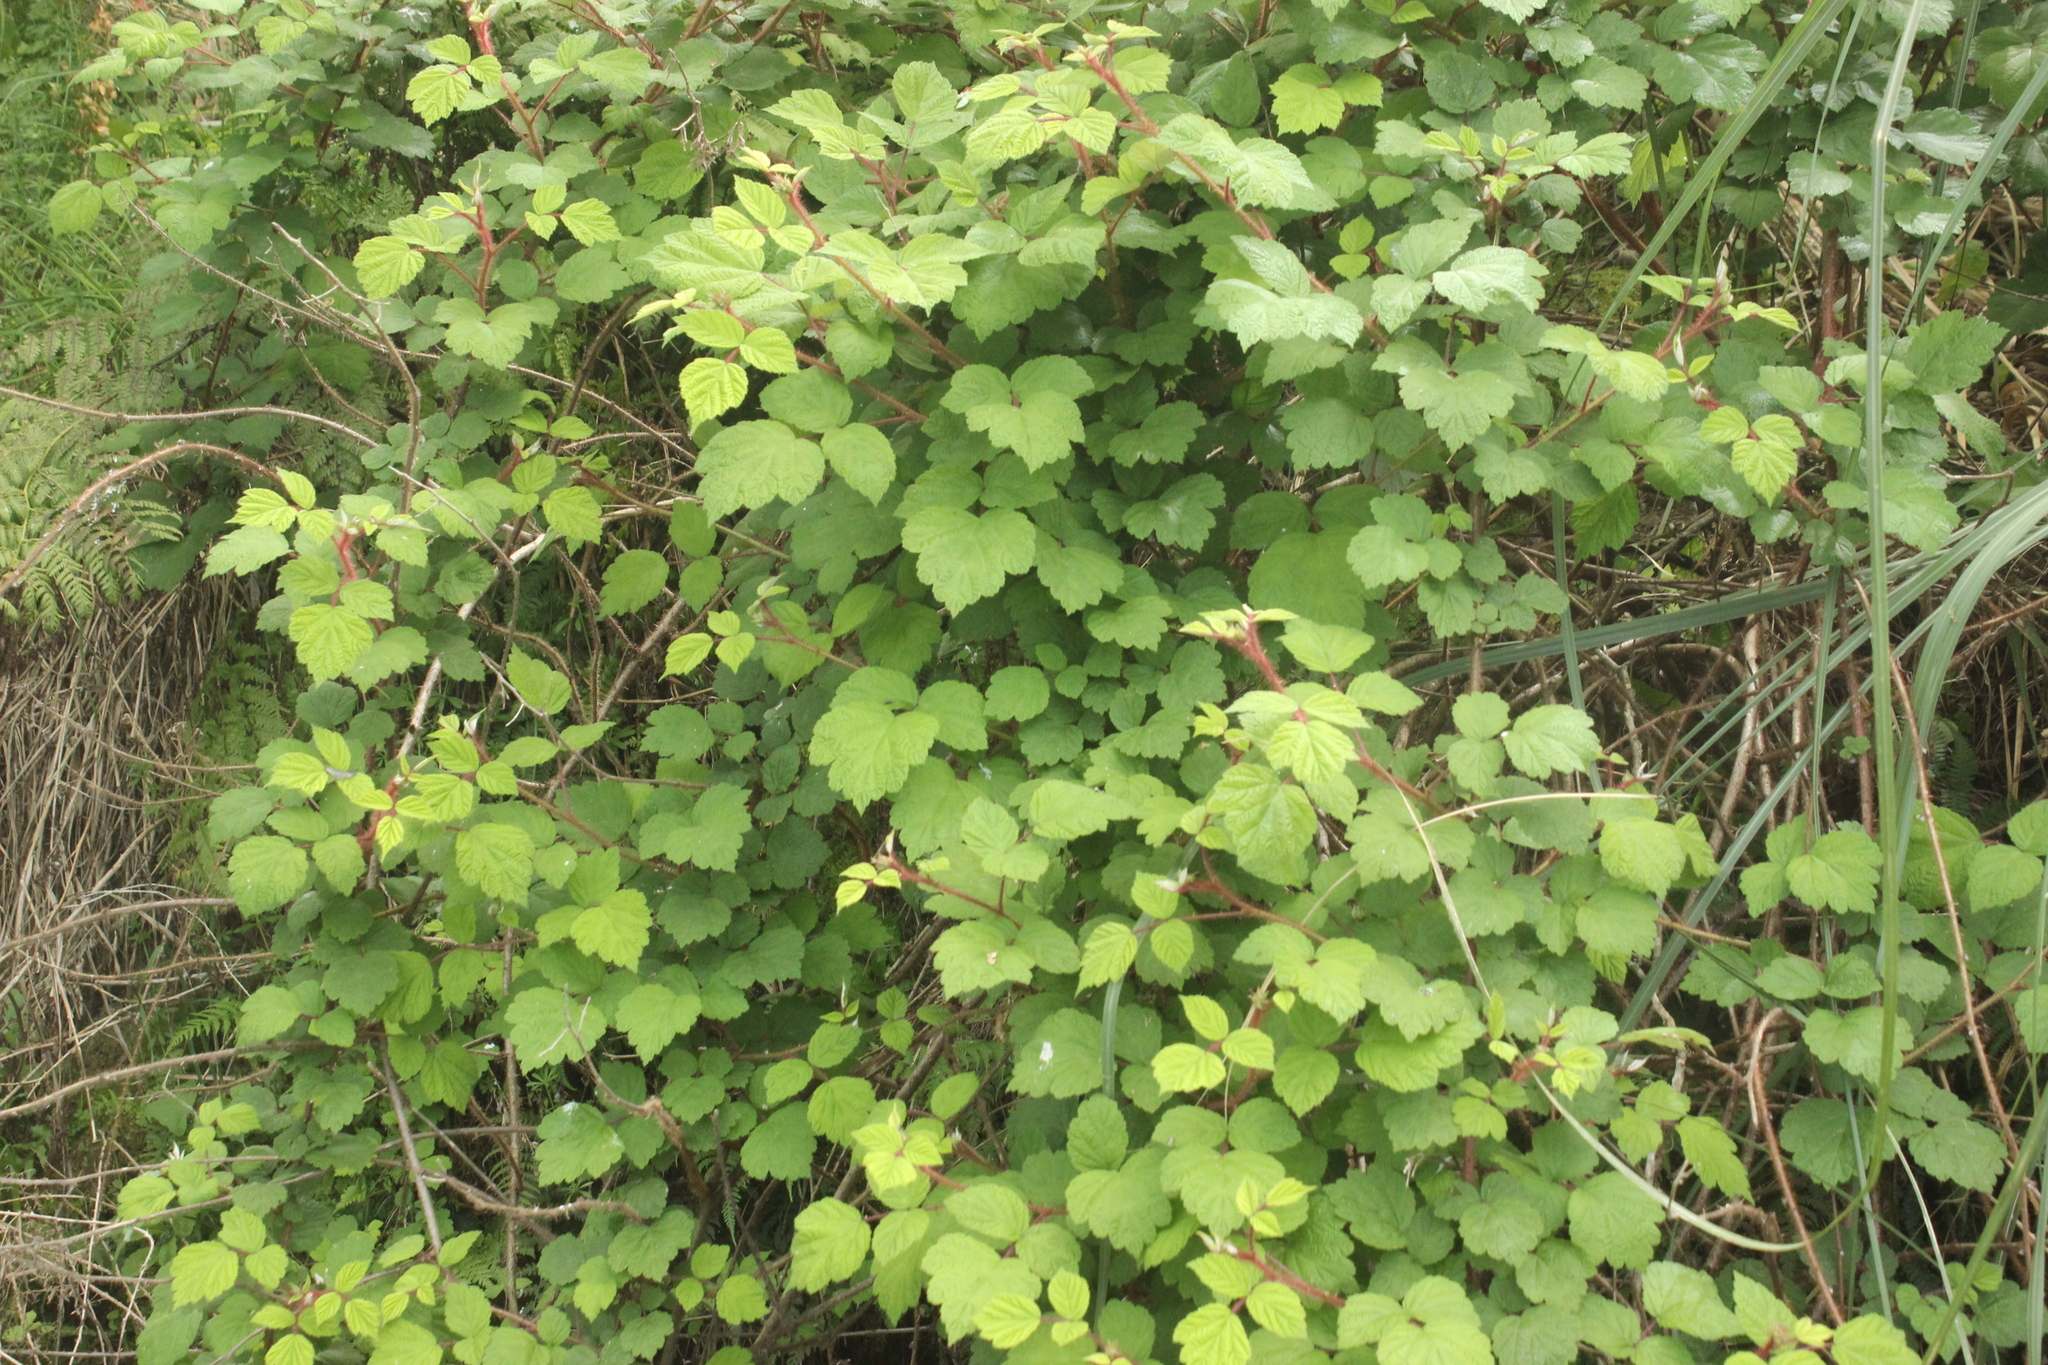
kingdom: Plantae
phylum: Tracheophyta
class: Magnoliopsida
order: Rosales
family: Rosaceae
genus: Rubus
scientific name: Rubus phoenicolasius
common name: Japanese wineberry
